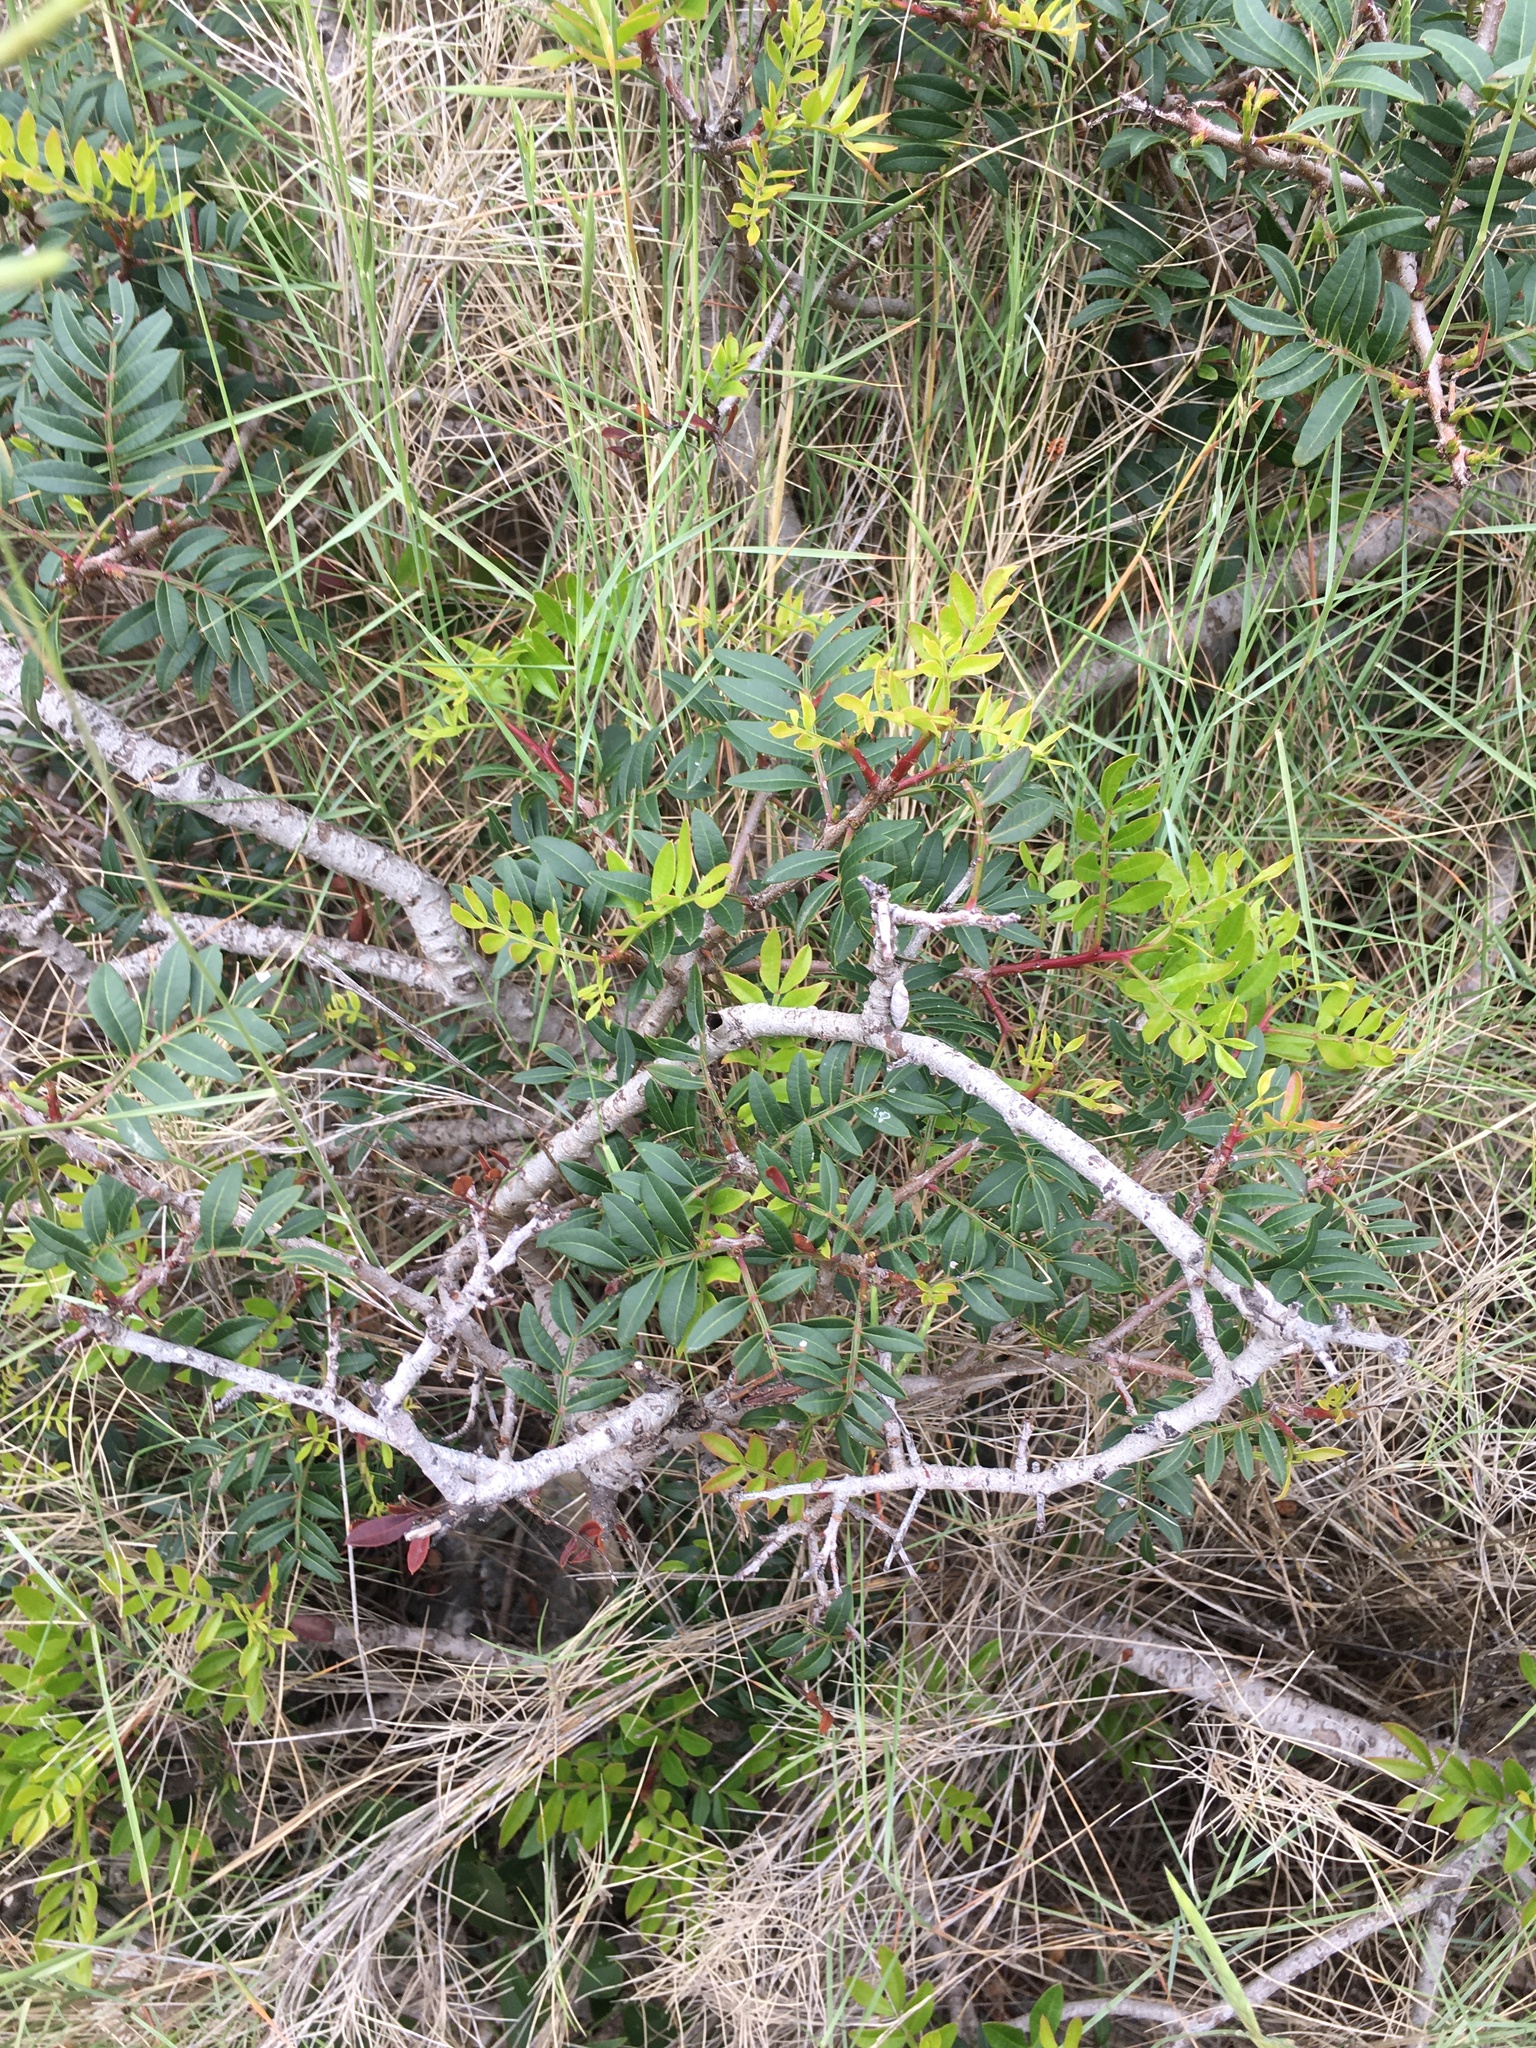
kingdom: Plantae
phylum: Tracheophyta
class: Magnoliopsida
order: Sapindales
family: Anacardiaceae
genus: Pistacia
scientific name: Pistacia lentiscus
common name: Lentisk
